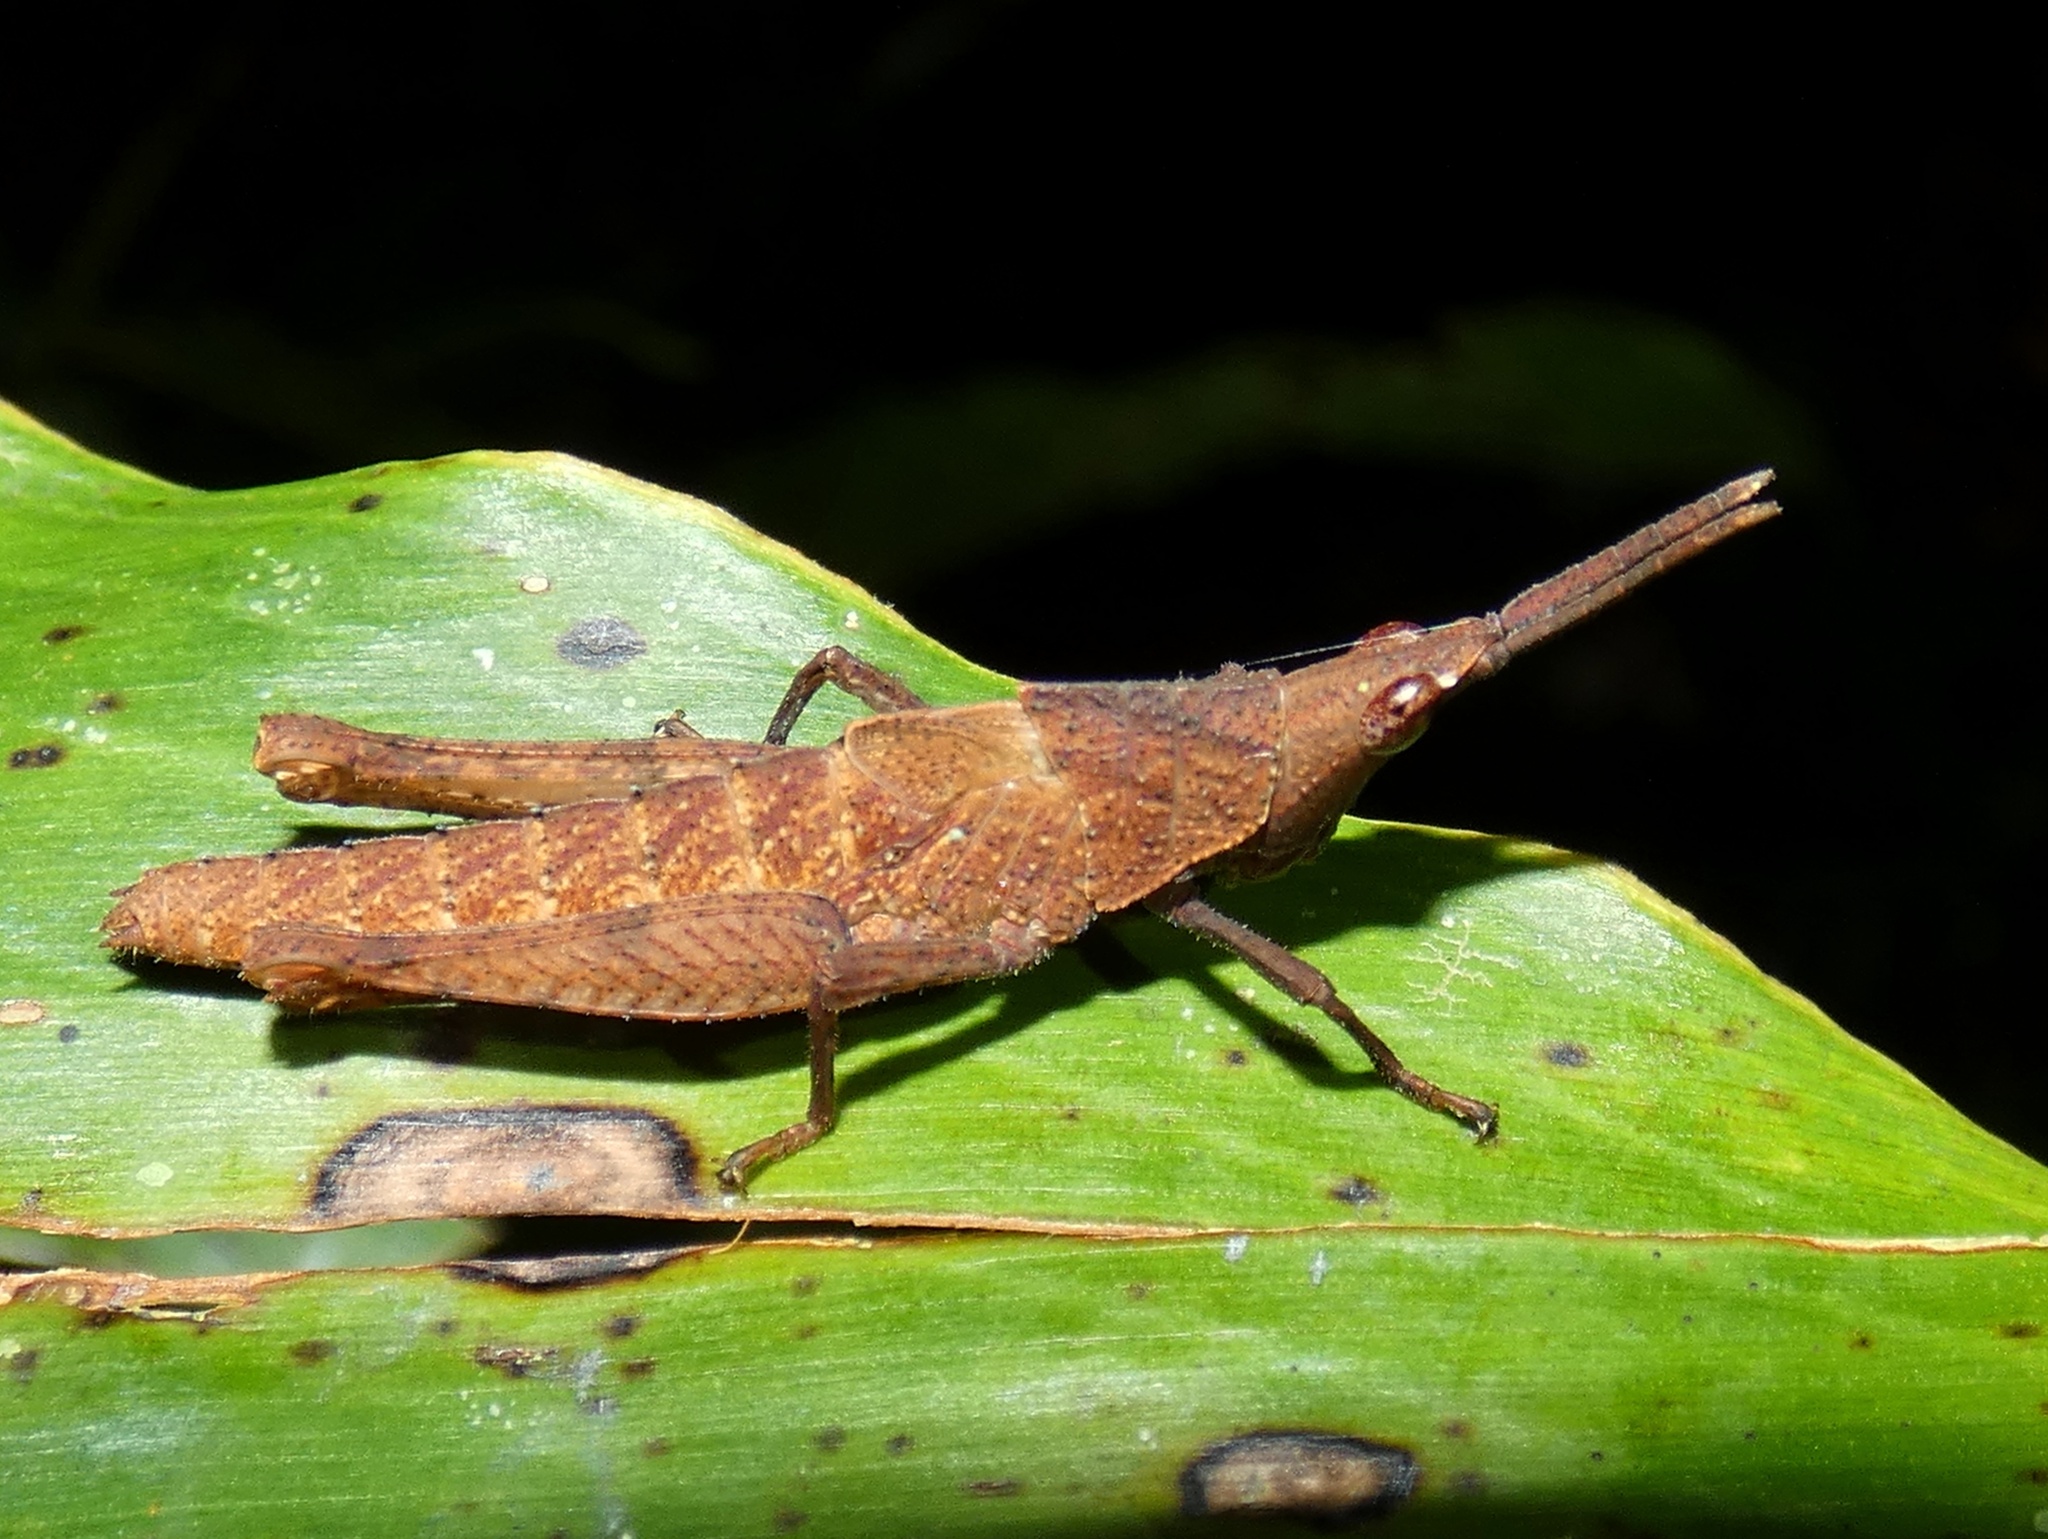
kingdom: Animalia
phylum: Arthropoda
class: Insecta
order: Orthoptera
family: Pyrgomorphidae
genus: Desmoptera
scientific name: Desmoptera truncatipennis
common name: Large forest pyrgomorph
